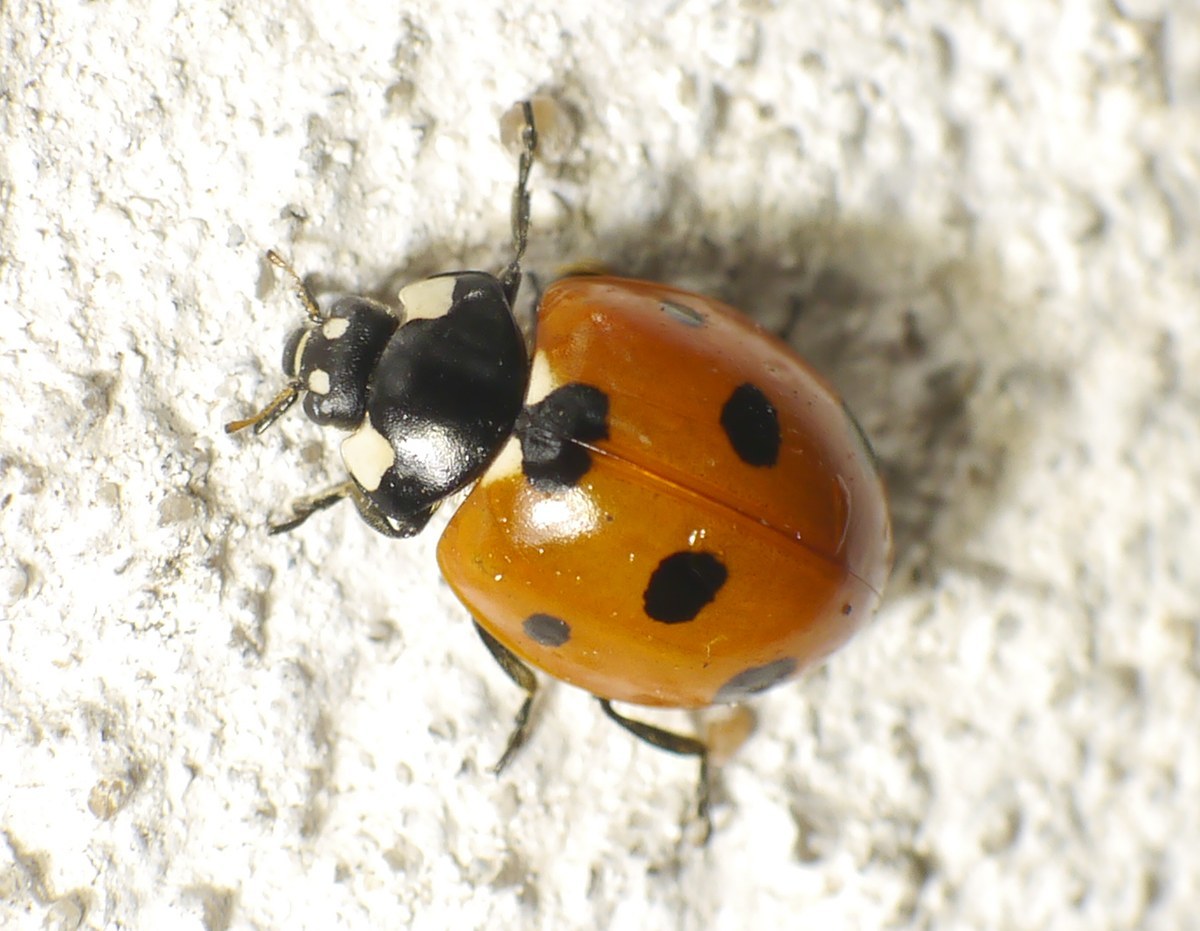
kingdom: Animalia
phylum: Arthropoda
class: Insecta
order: Coleoptera
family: Coccinellidae
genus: Coccinella
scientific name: Coccinella septempunctata
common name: Sevenspotted lady beetle
